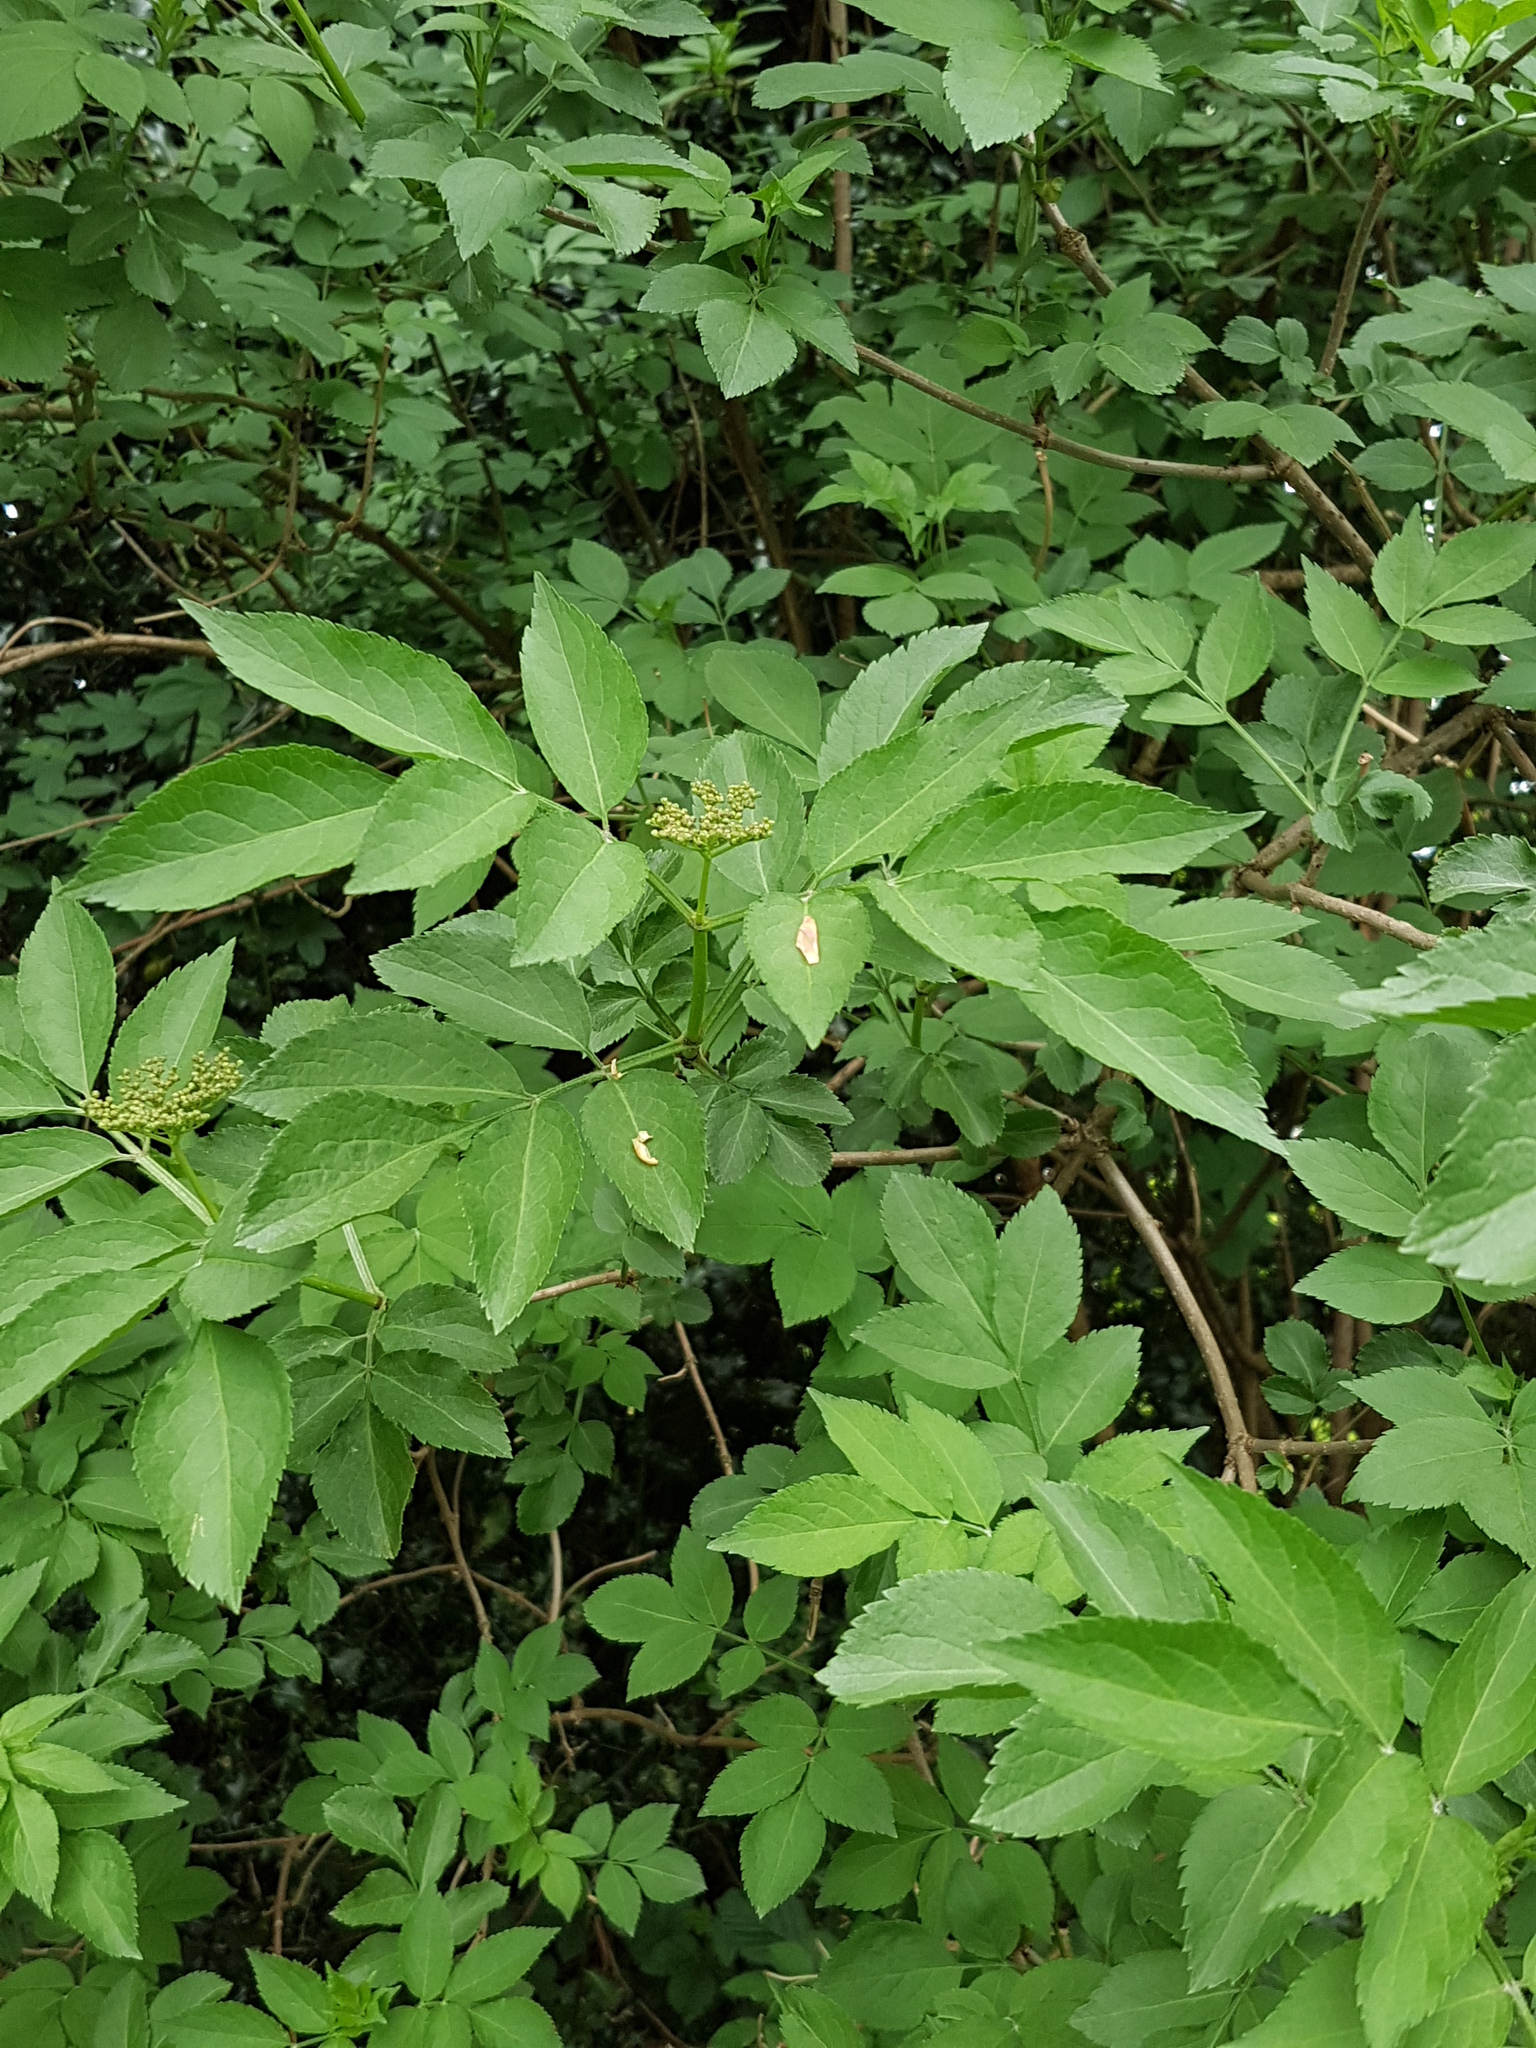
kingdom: Plantae
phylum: Tracheophyta
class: Magnoliopsida
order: Dipsacales
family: Viburnaceae
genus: Sambucus
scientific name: Sambucus nigra
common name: Elder
